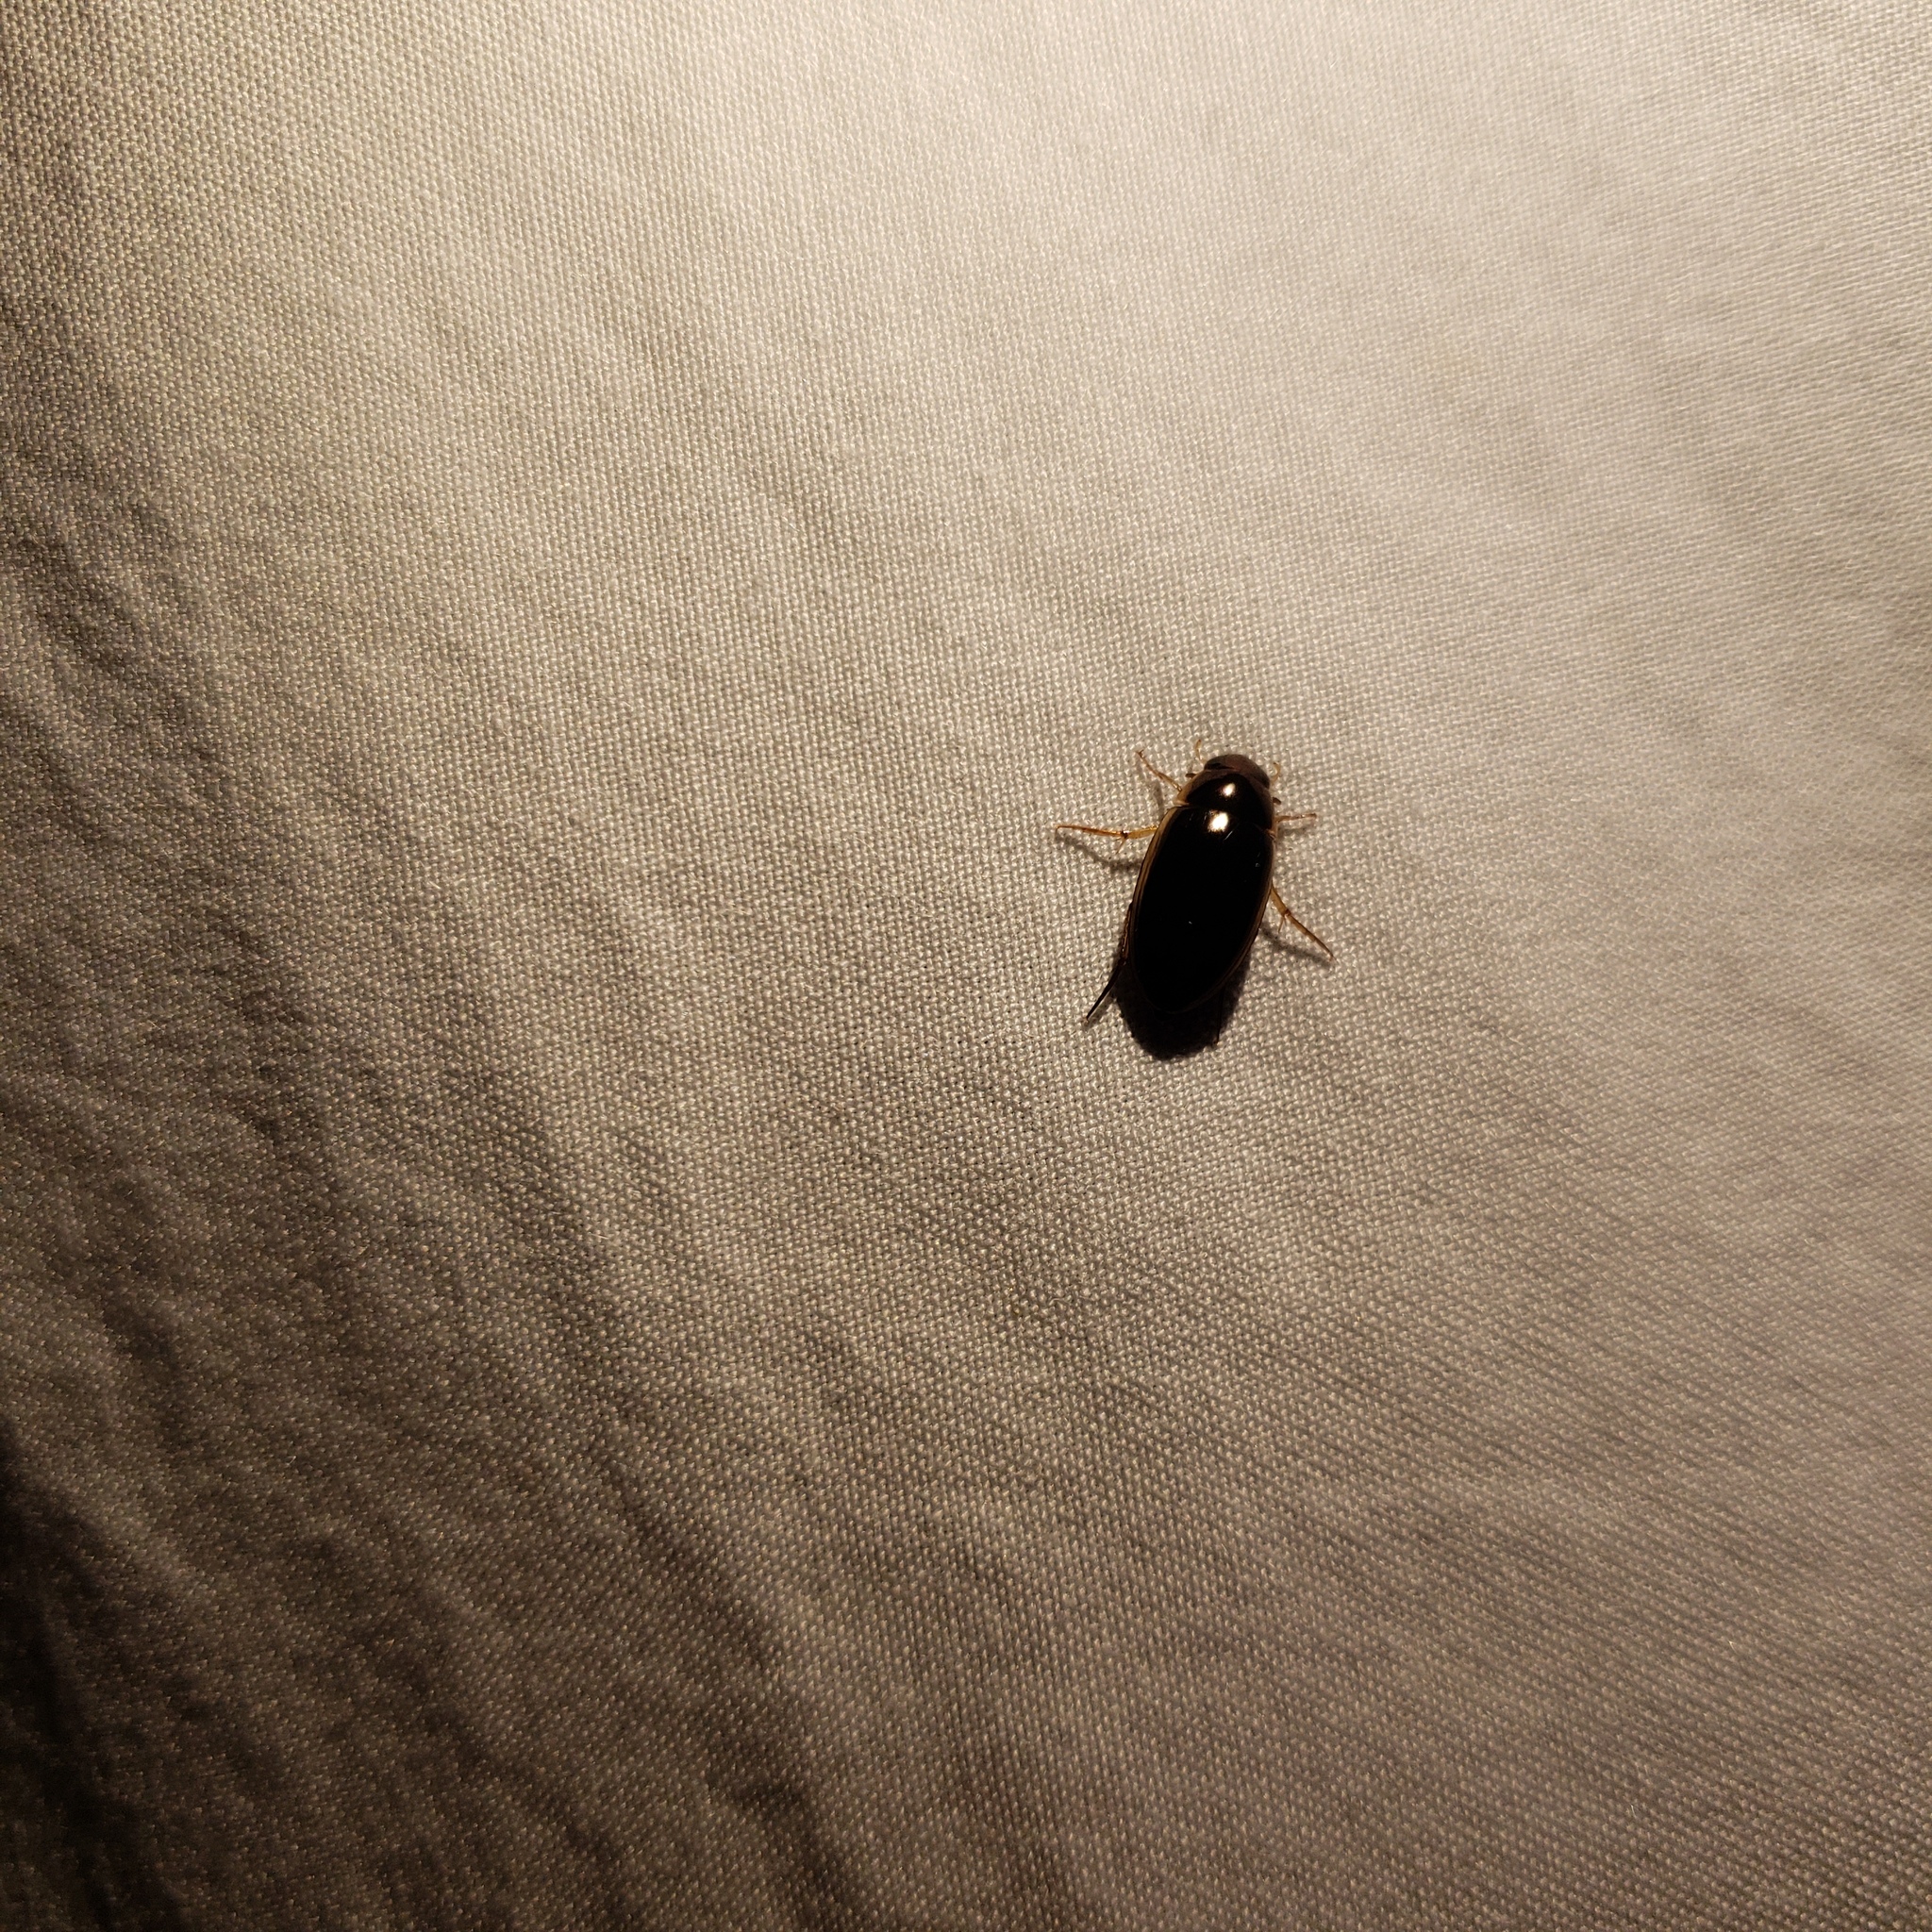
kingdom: Animalia
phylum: Arthropoda
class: Insecta
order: Coleoptera
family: Hydrophilidae
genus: Tropisternus
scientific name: Tropisternus lateralis
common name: Lateral-banded water scavenger beetle
